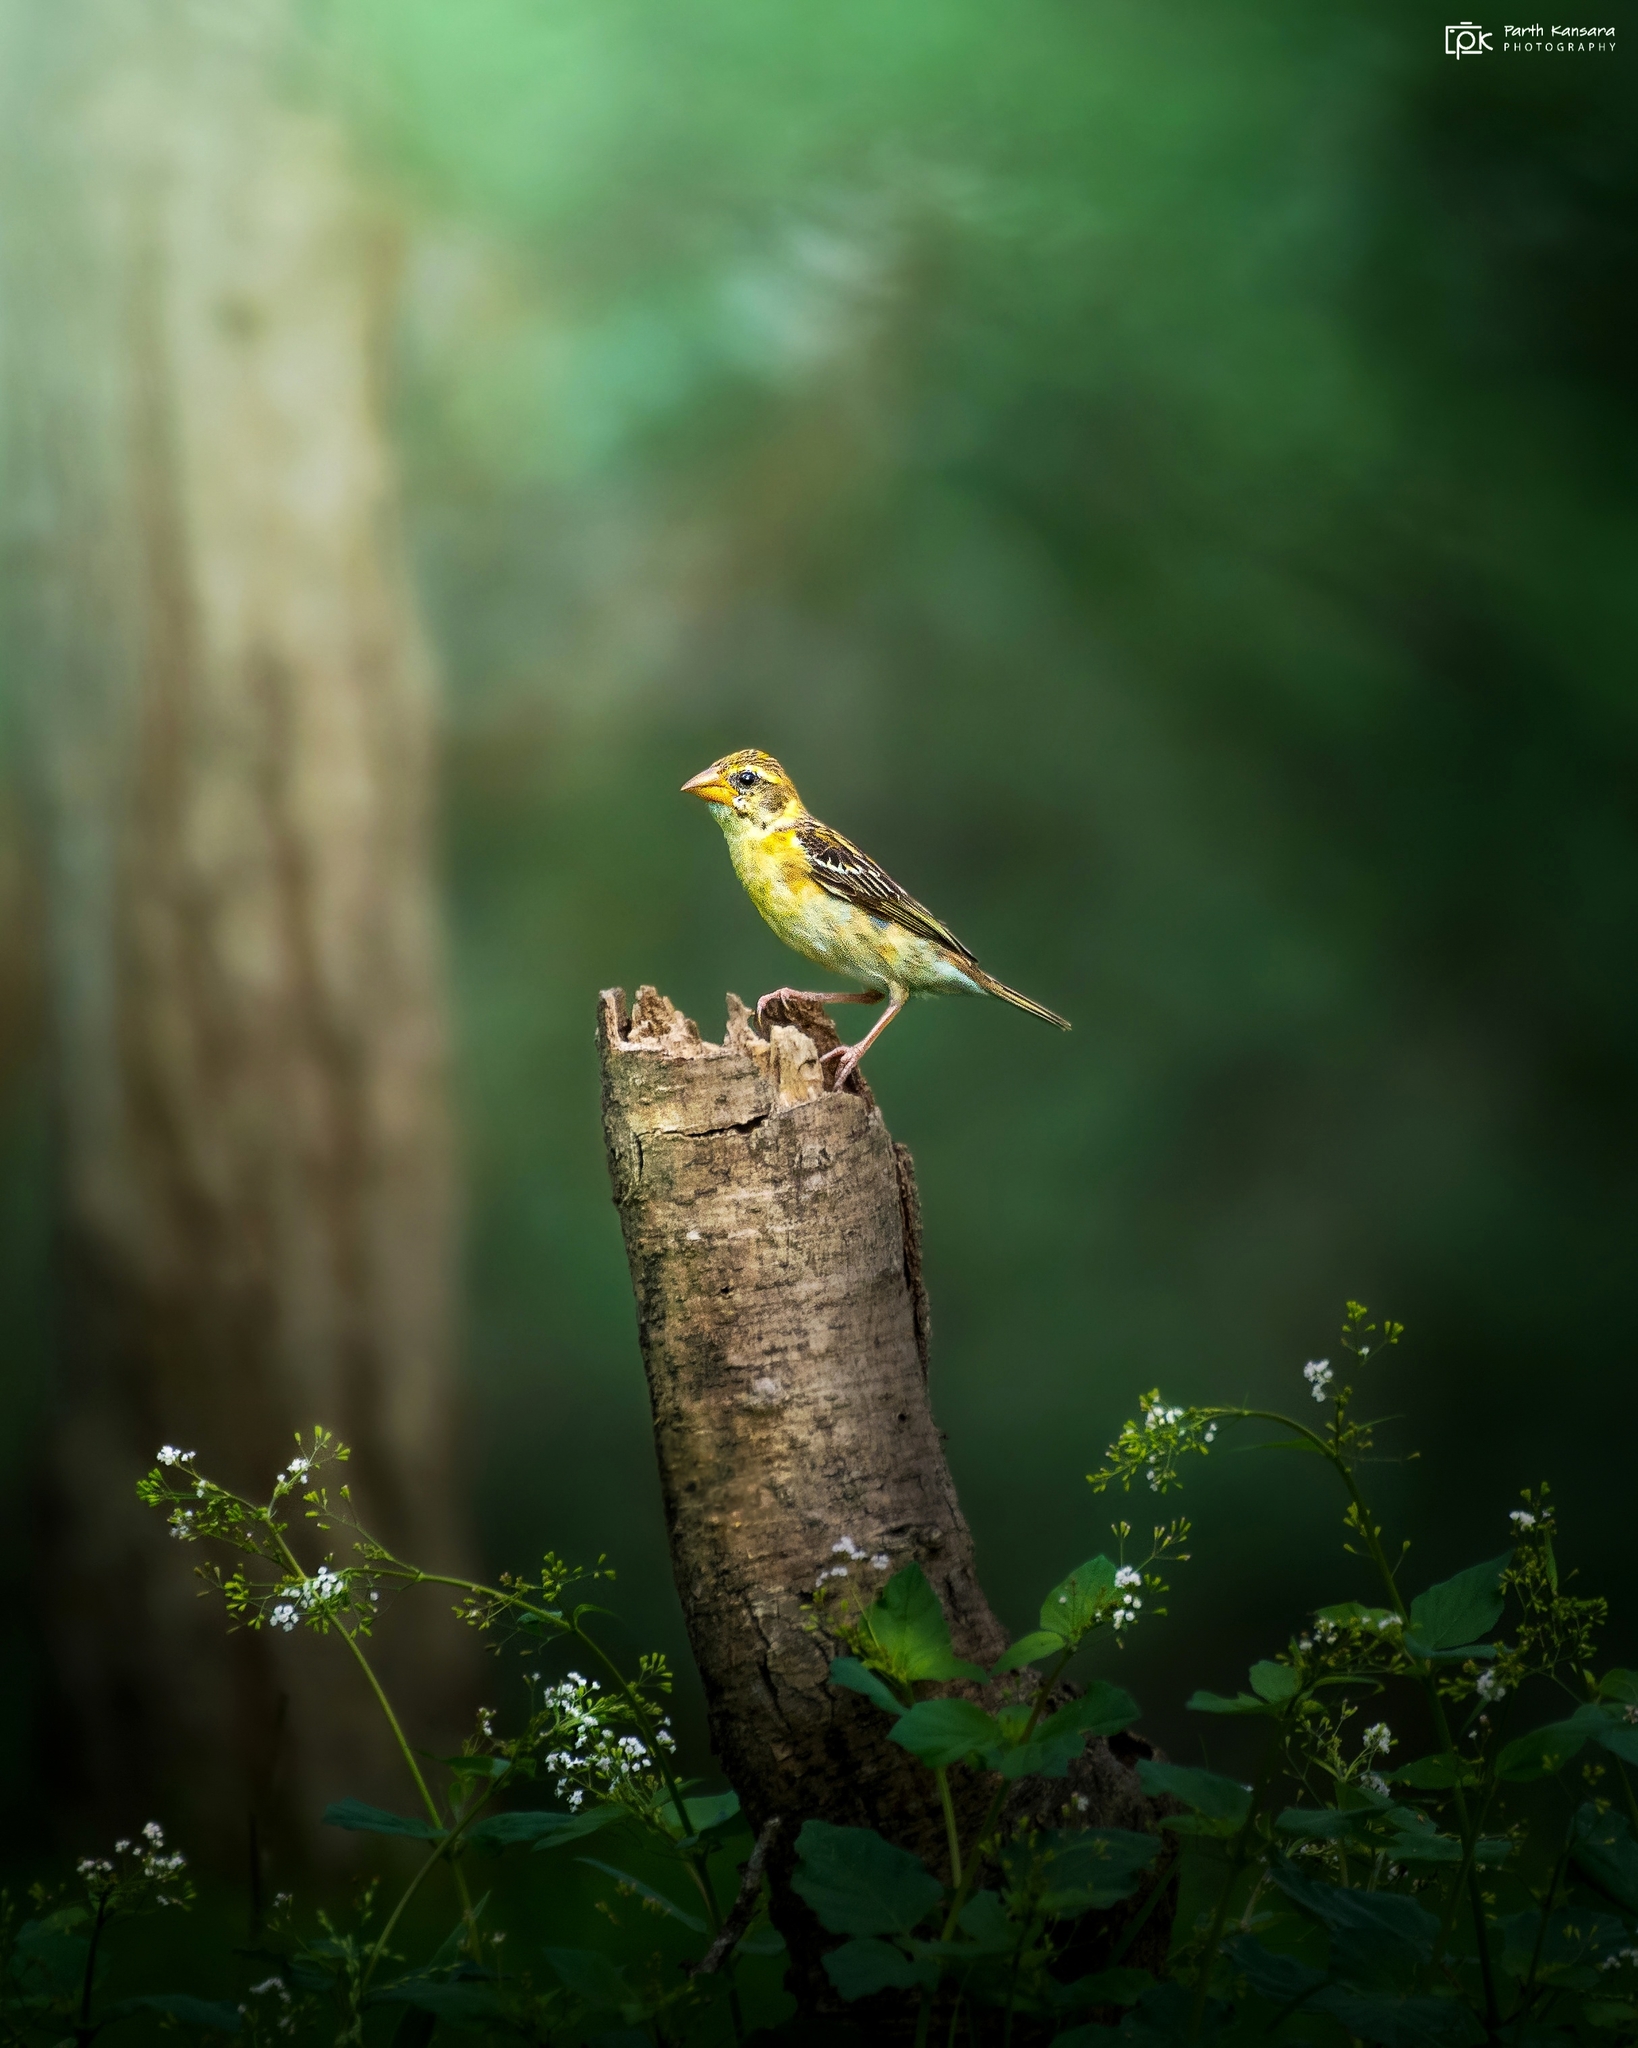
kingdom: Animalia
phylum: Chordata
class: Aves
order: Passeriformes
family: Ploceidae
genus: Ploceus
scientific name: Ploceus philippinus
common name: Baya weaver
